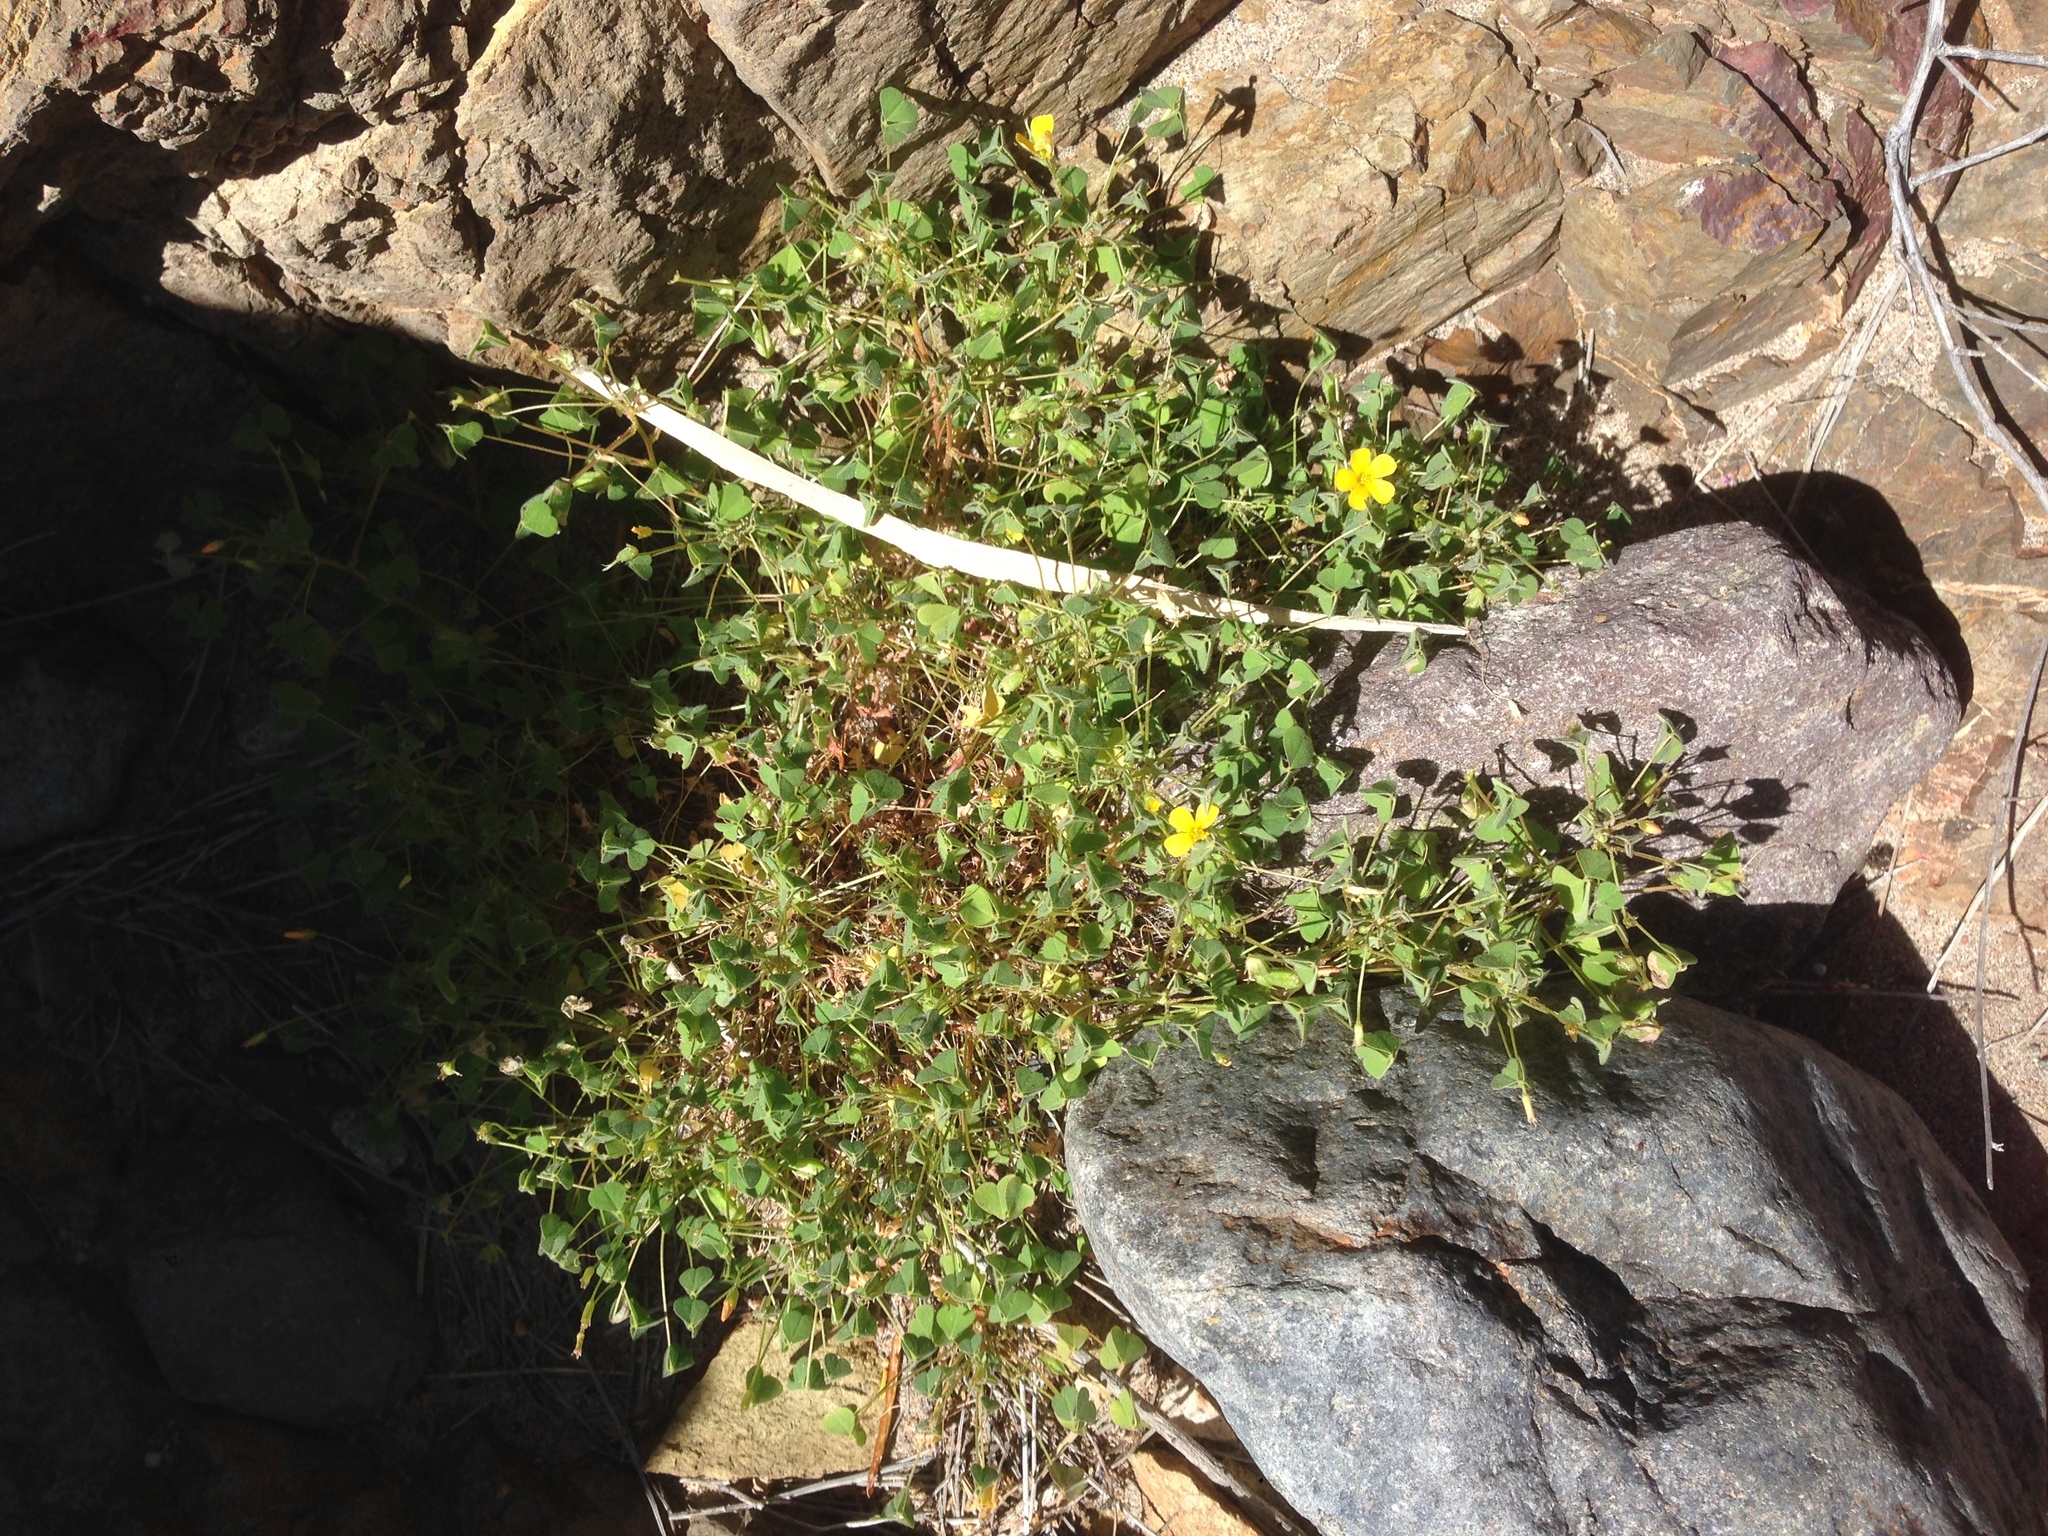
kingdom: Plantae
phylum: Tracheophyta
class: Magnoliopsida
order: Oxalidales
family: Oxalidaceae
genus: Oxalis
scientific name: Oxalis californica
